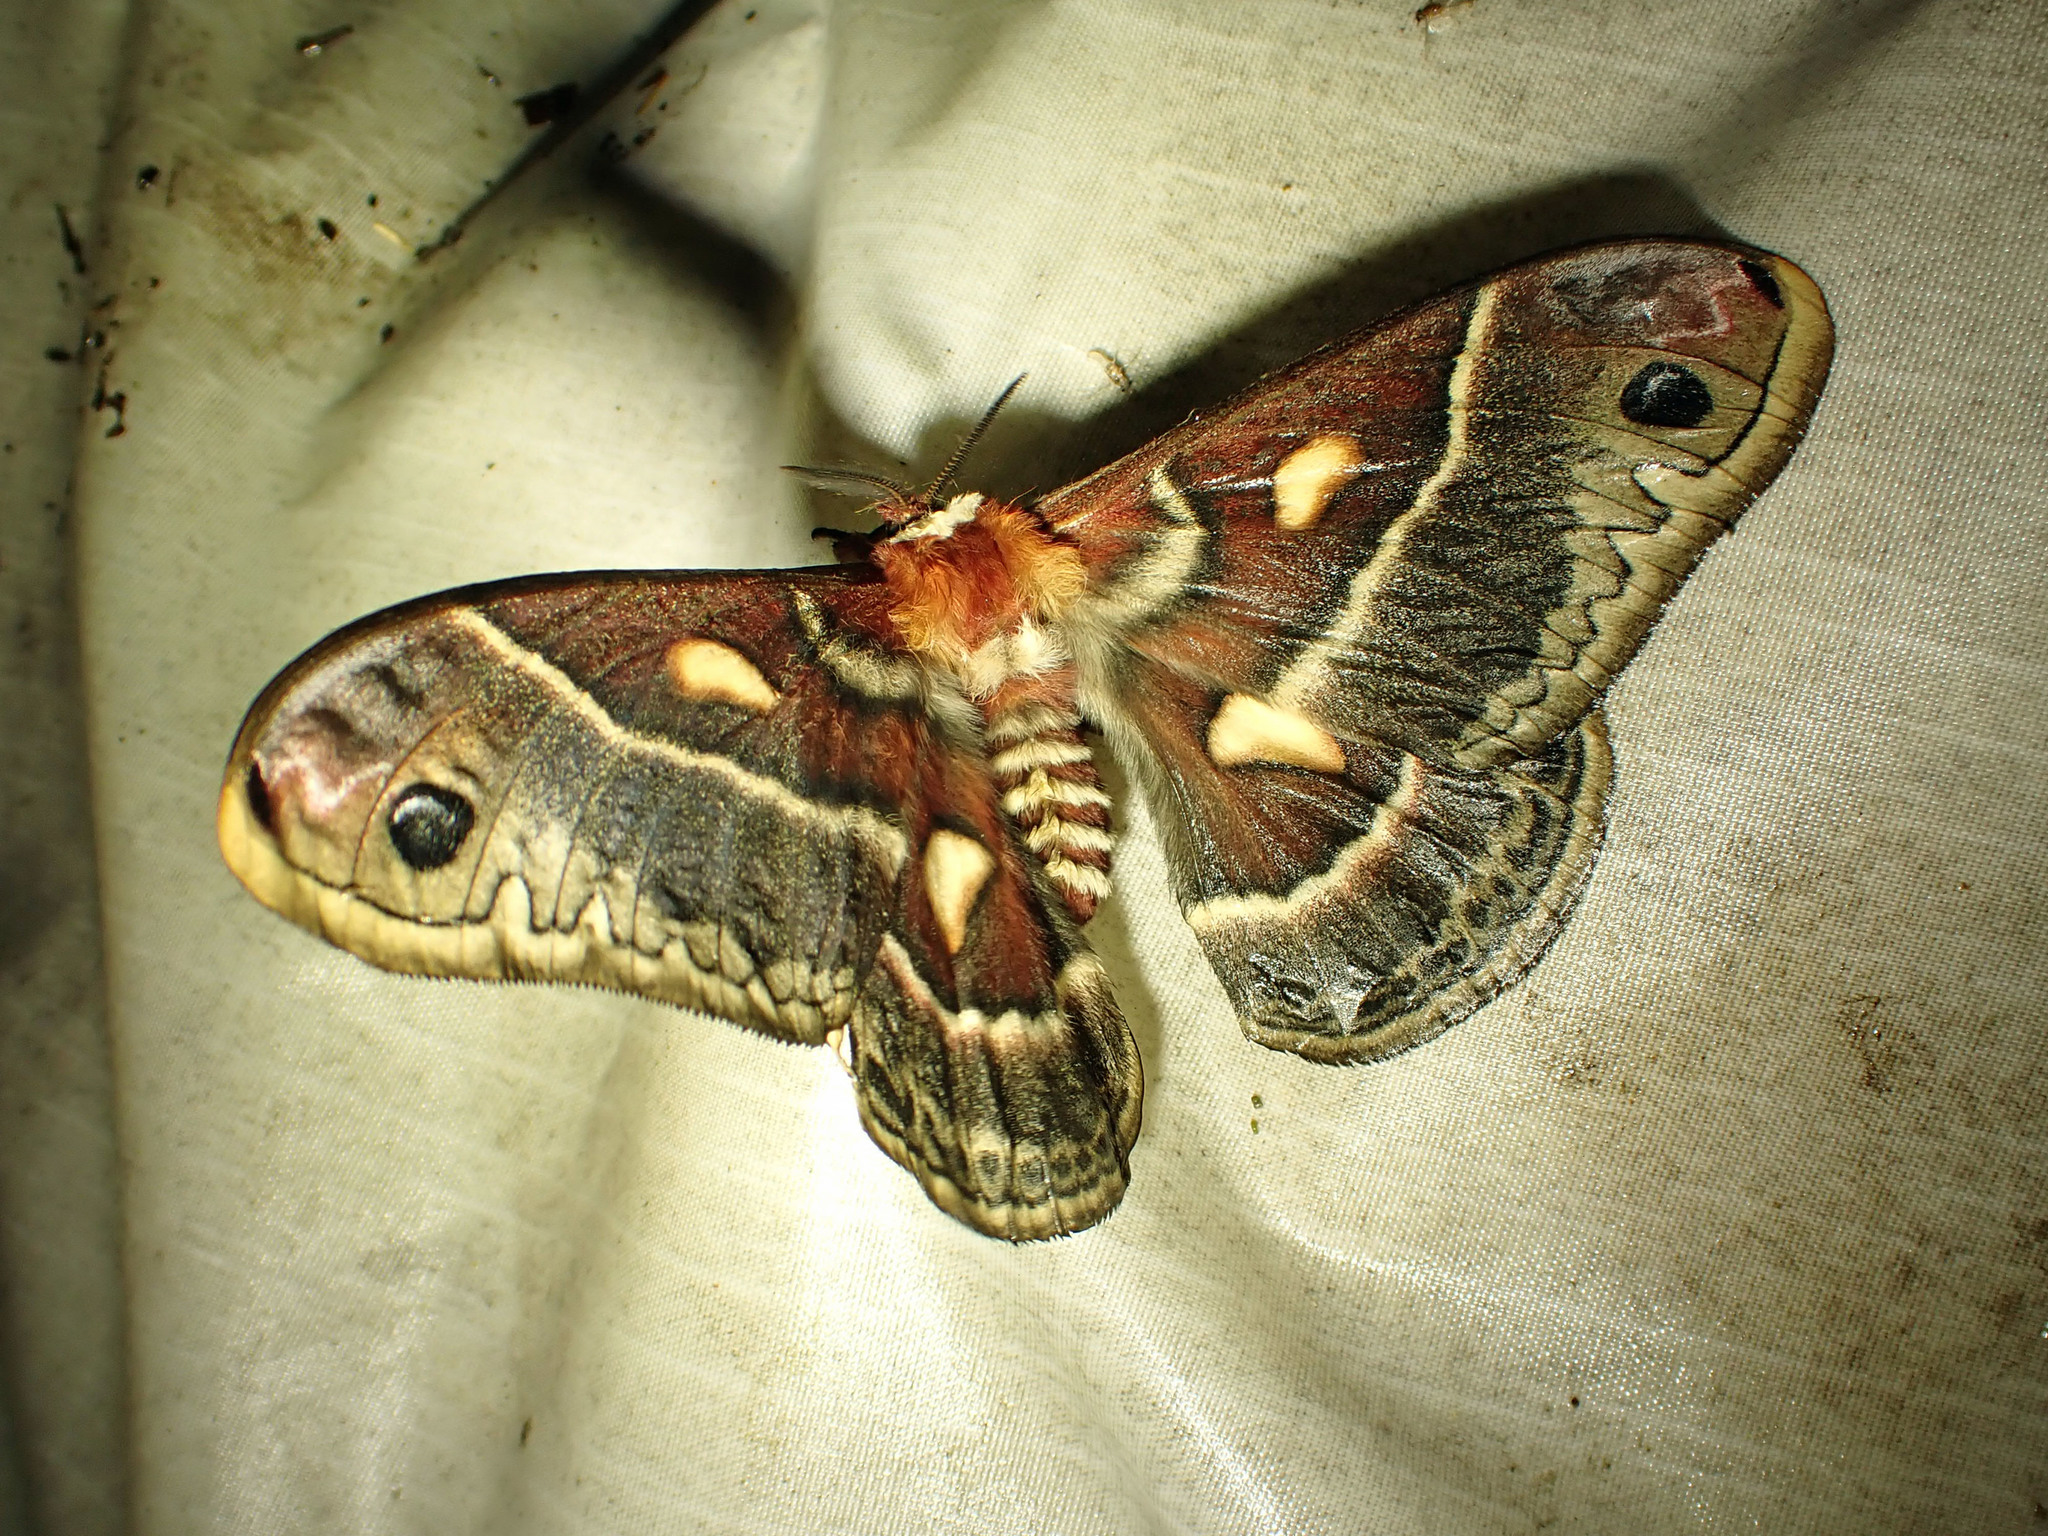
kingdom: Animalia
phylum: Arthropoda
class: Insecta
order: Lepidoptera
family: Saturniidae
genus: Hyalophora
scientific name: Hyalophora columbia
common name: Columbia silkmoth
